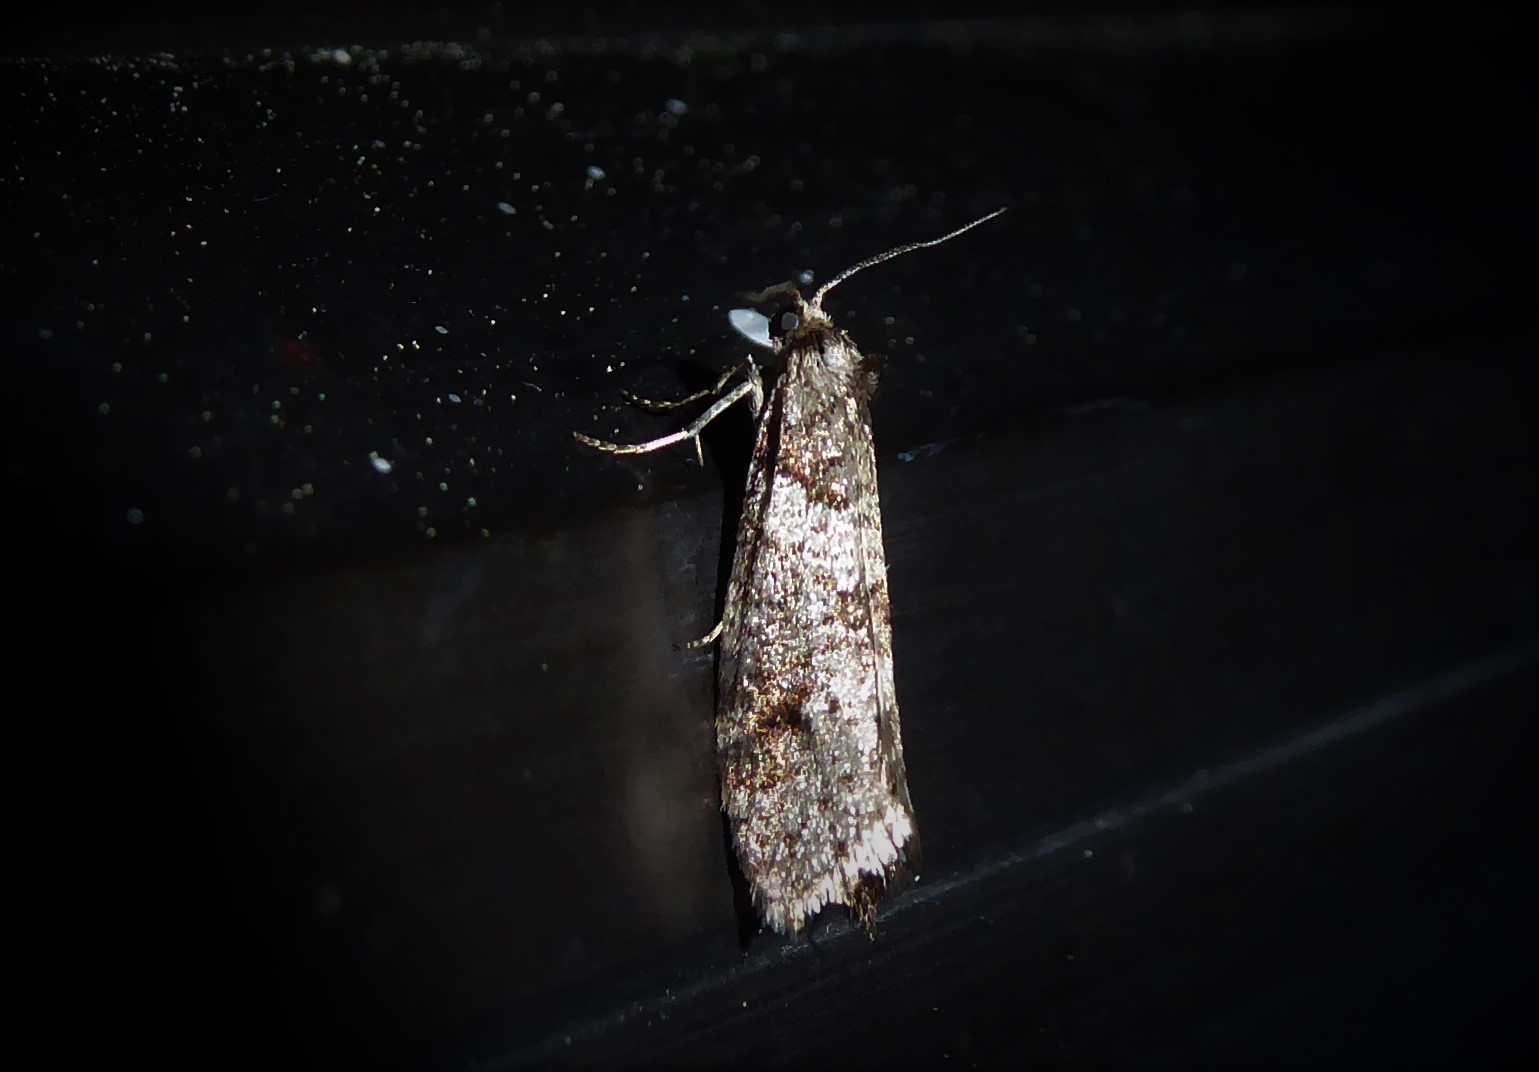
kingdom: Animalia
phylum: Arthropoda
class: Insecta
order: Lepidoptera
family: Psychidae
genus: Lepidoscia
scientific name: Lepidoscia heliochares
